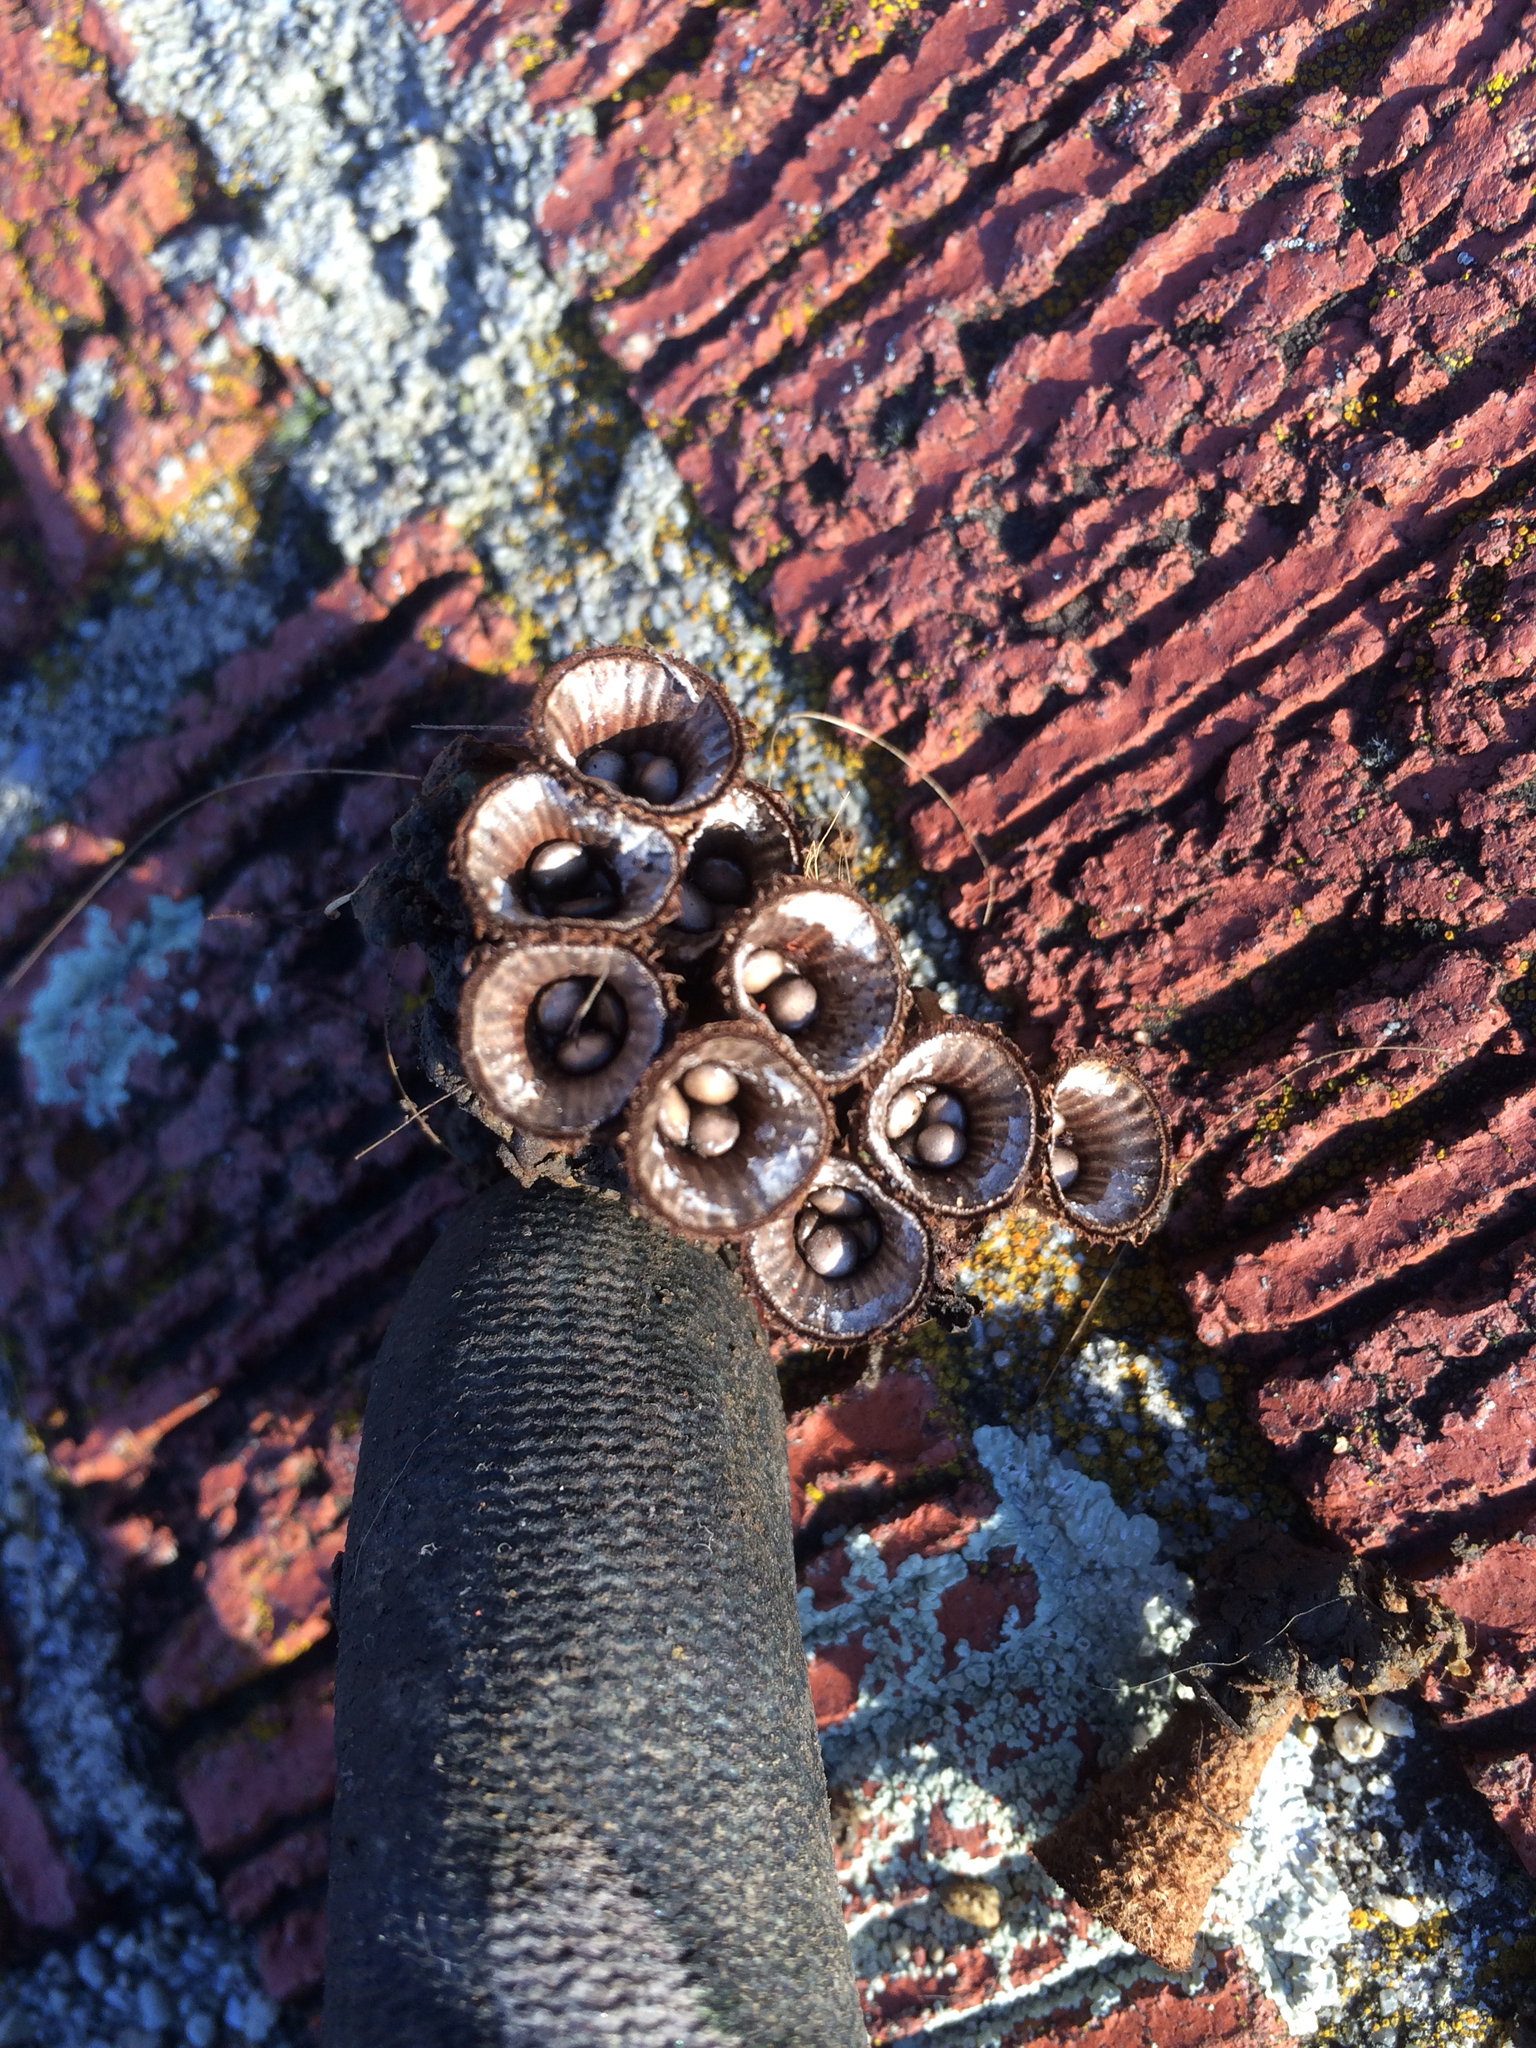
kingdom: Fungi
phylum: Basidiomycota
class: Agaricomycetes
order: Agaricales
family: Agaricaceae
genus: Cyathus
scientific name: Cyathus striatus
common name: Fluted bird's nest
